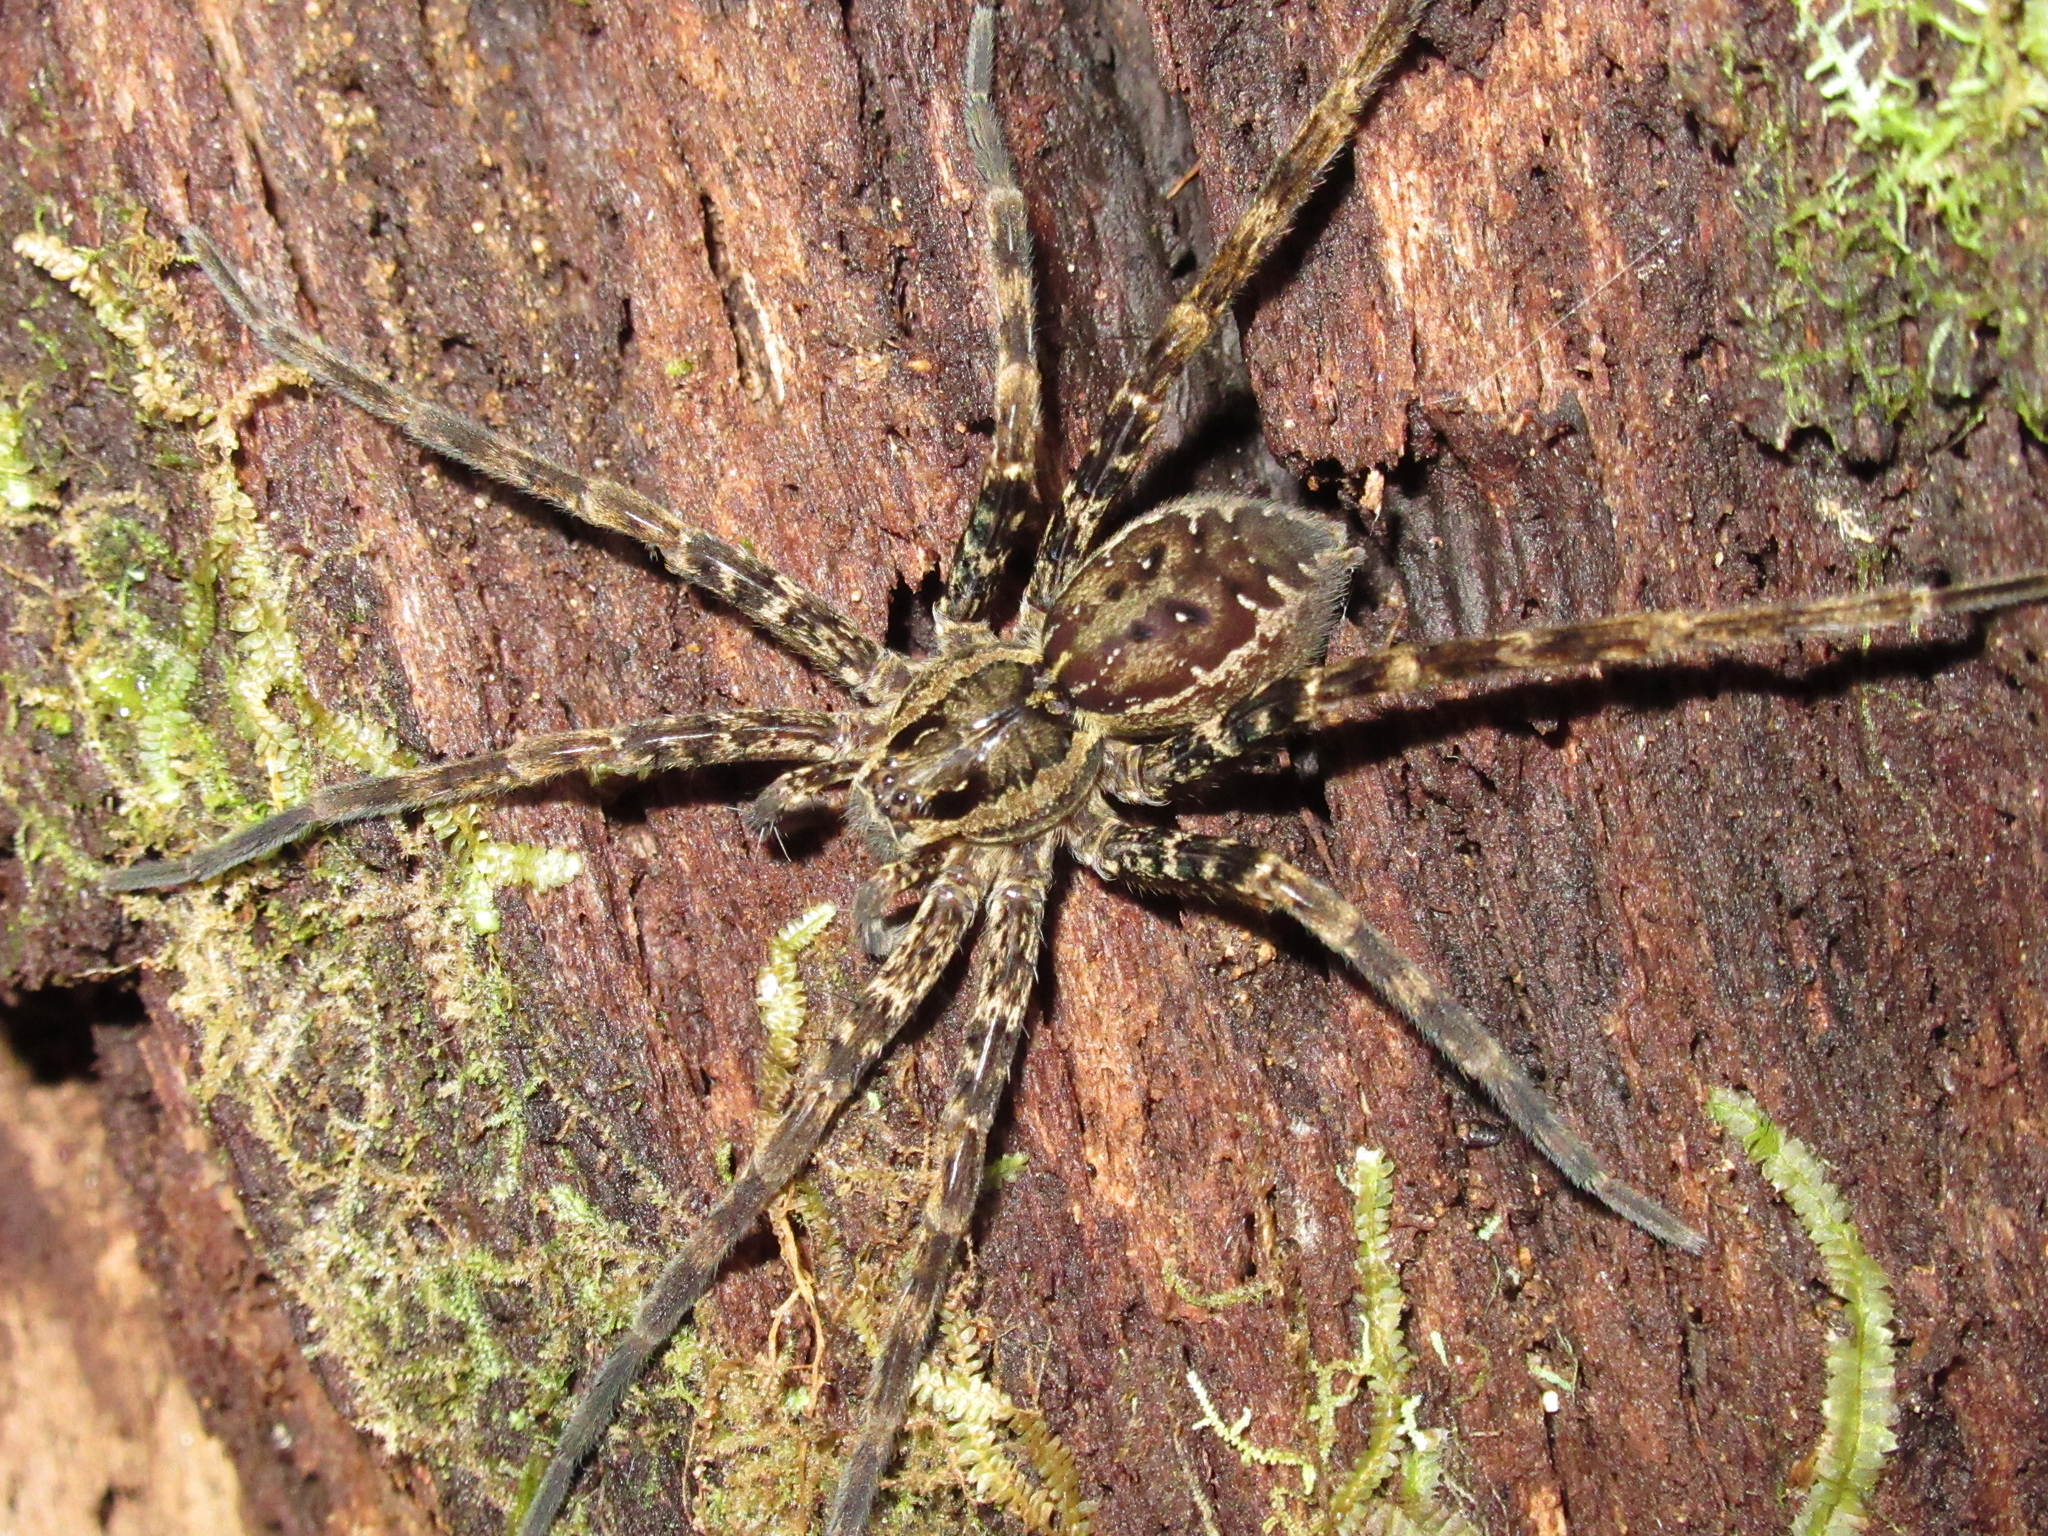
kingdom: Animalia
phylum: Arthropoda
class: Arachnida
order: Araneae
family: Pisauridae
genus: Dolomedes
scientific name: Dolomedes dondalei
